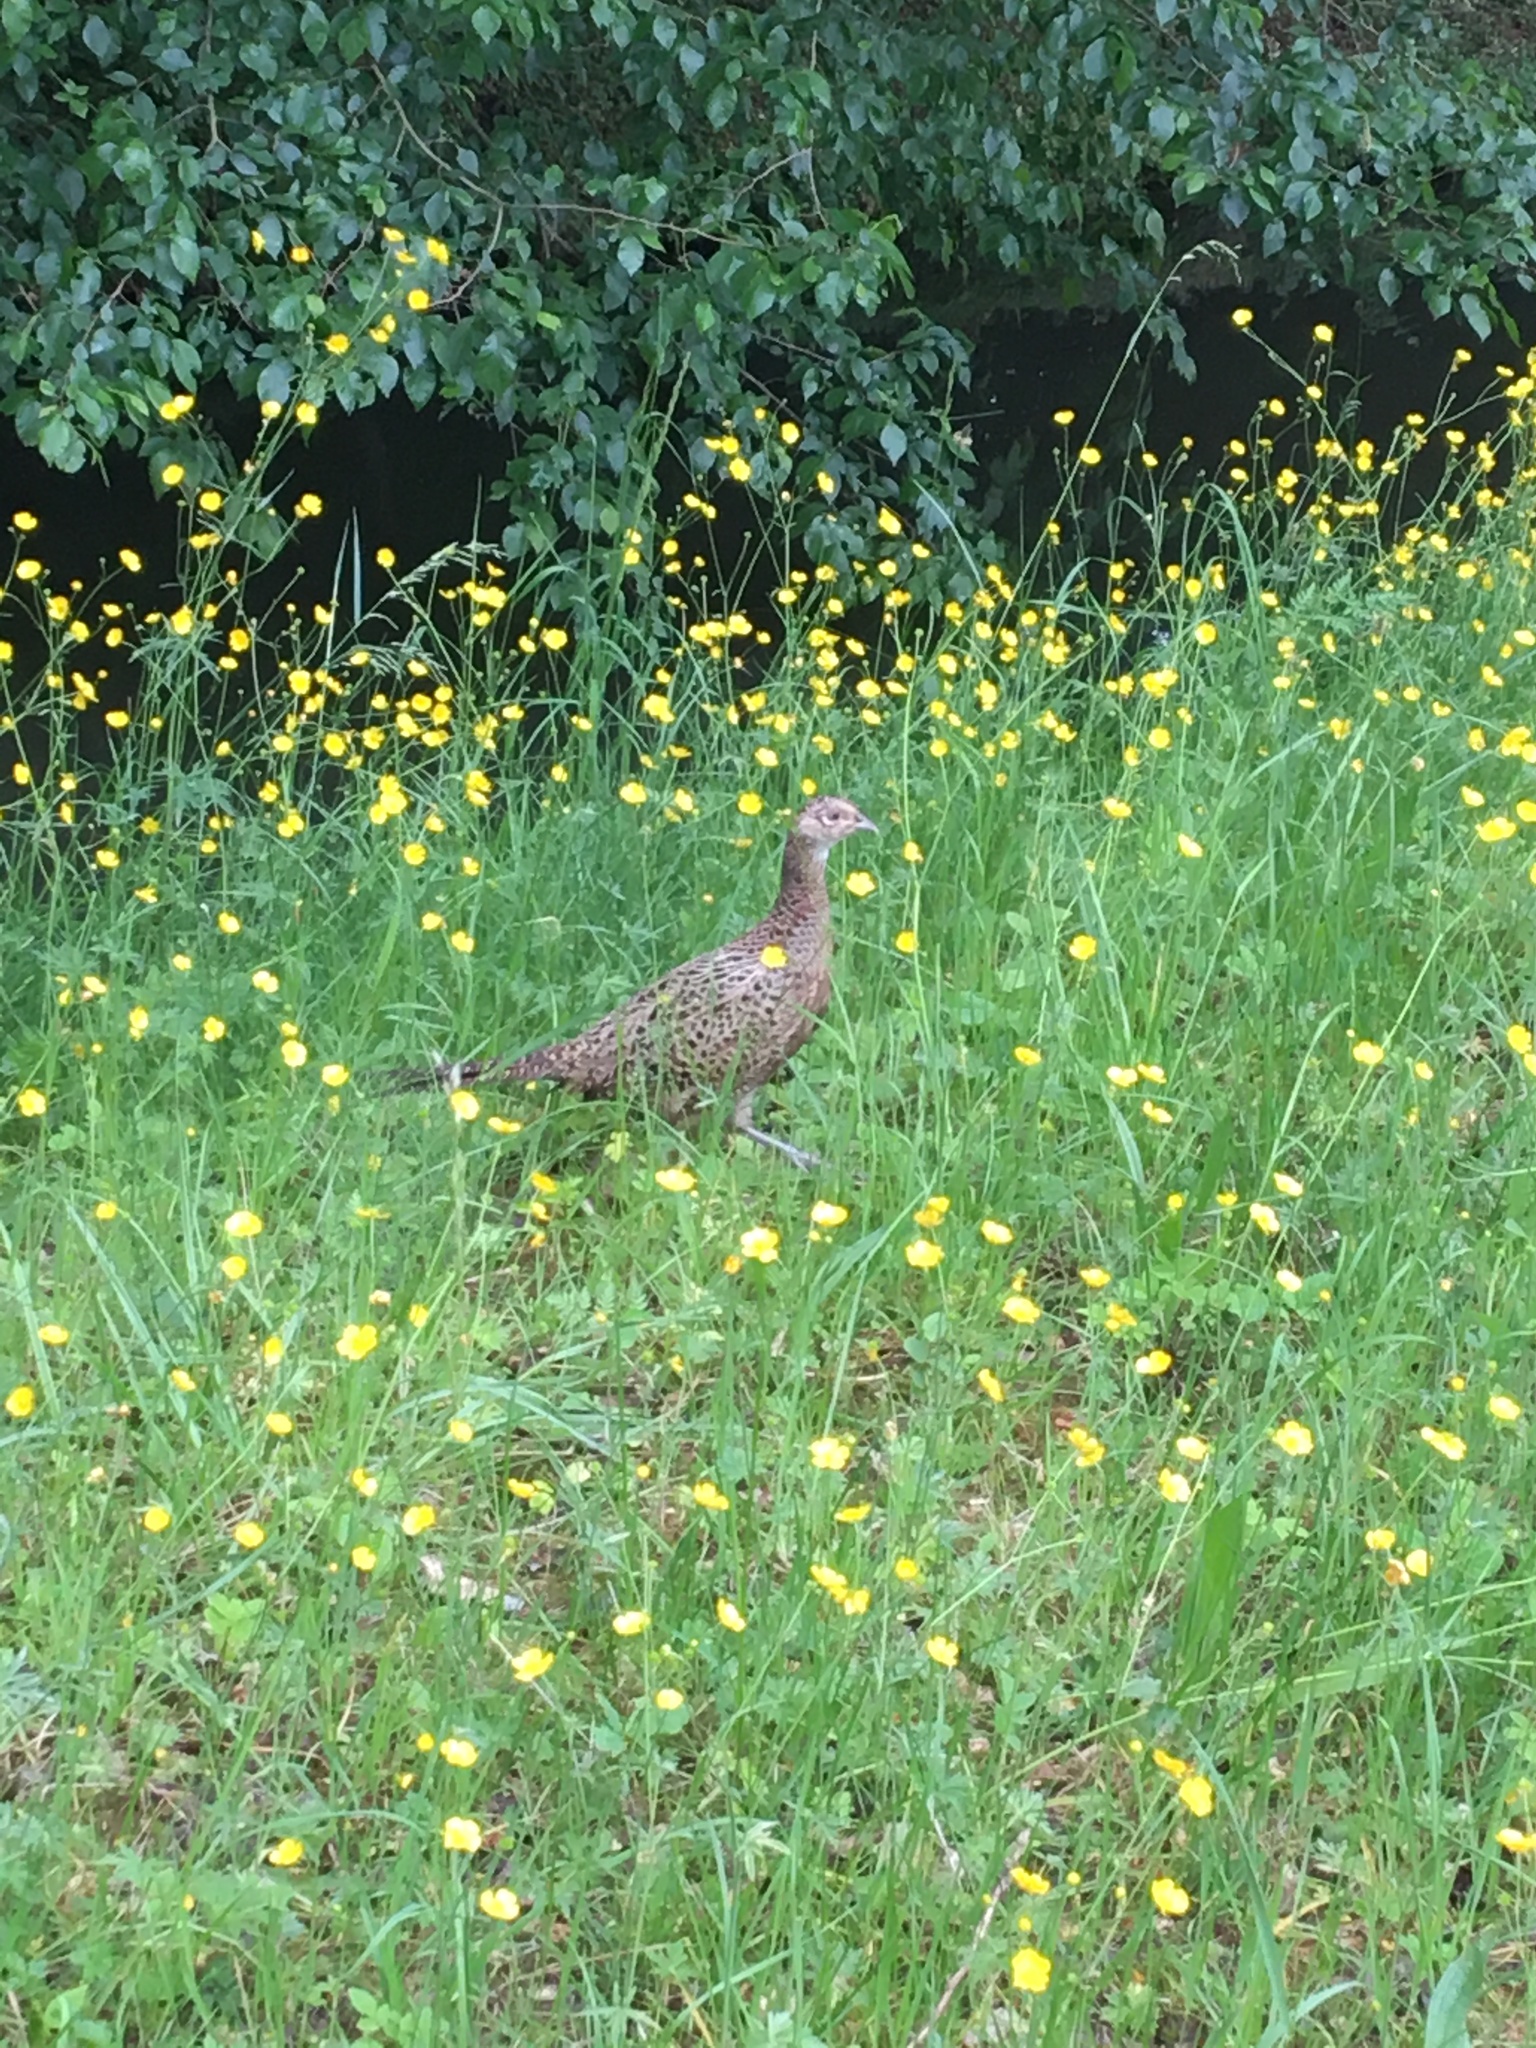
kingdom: Animalia
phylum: Chordata
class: Aves
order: Galliformes
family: Phasianidae
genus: Phasianus
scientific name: Phasianus colchicus
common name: Common pheasant
